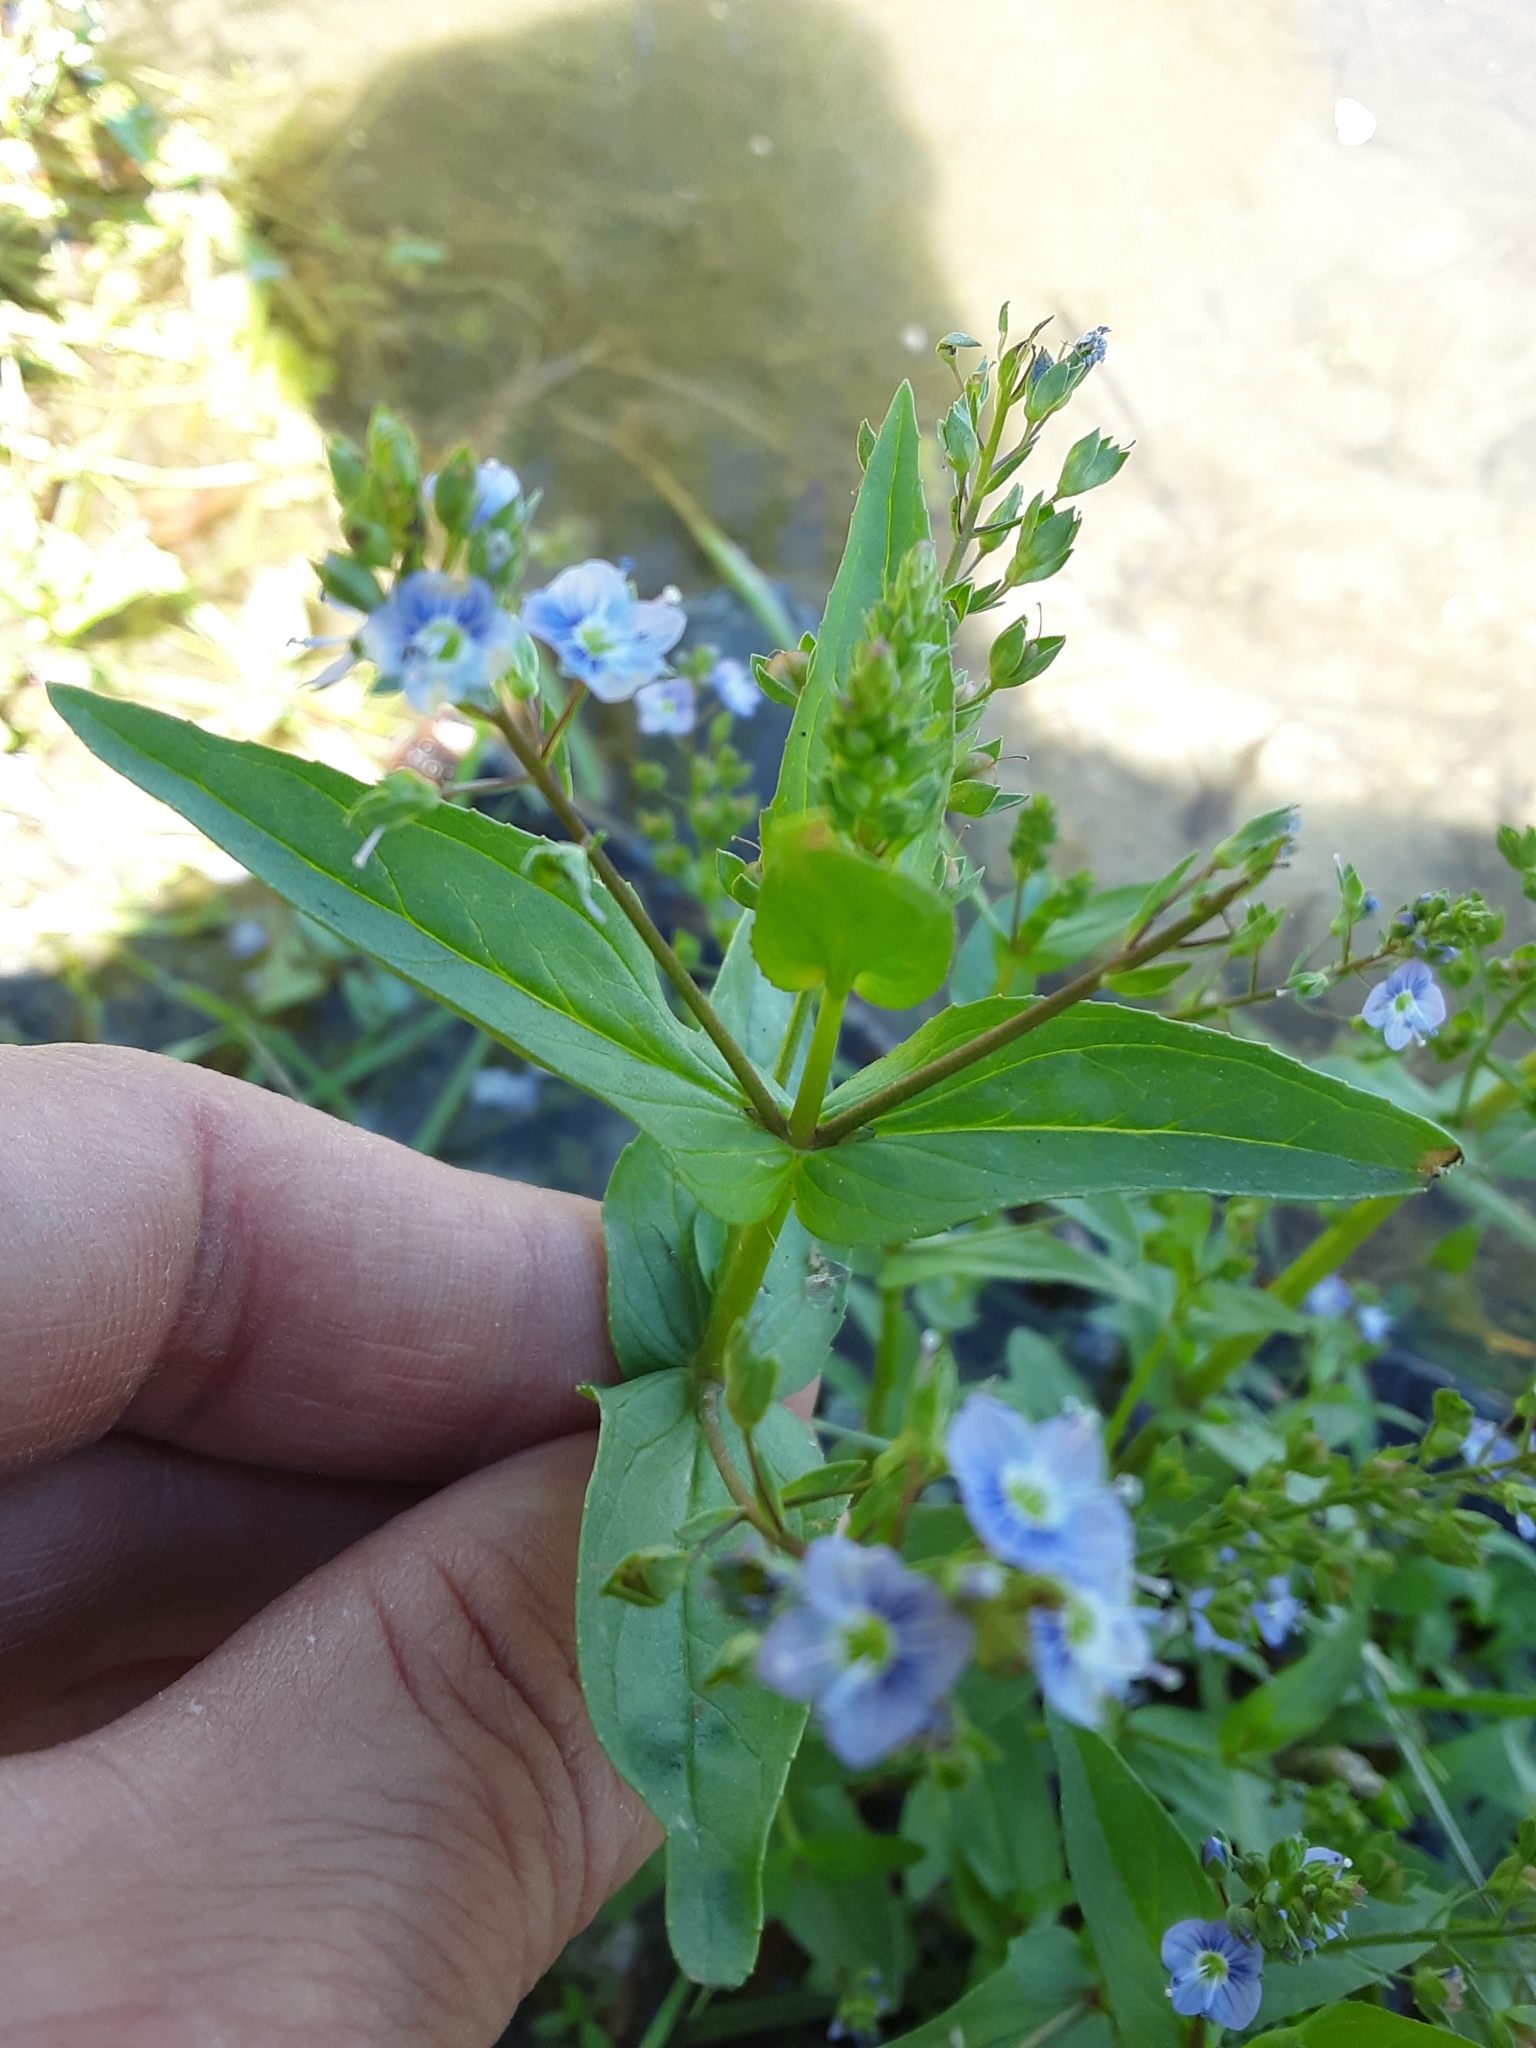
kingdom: Plantae
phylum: Tracheophyta
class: Magnoliopsida
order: Lamiales
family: Plantaginaceae
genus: Veronica
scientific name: Veronica anagallis-aquatica
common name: Water speedwell
